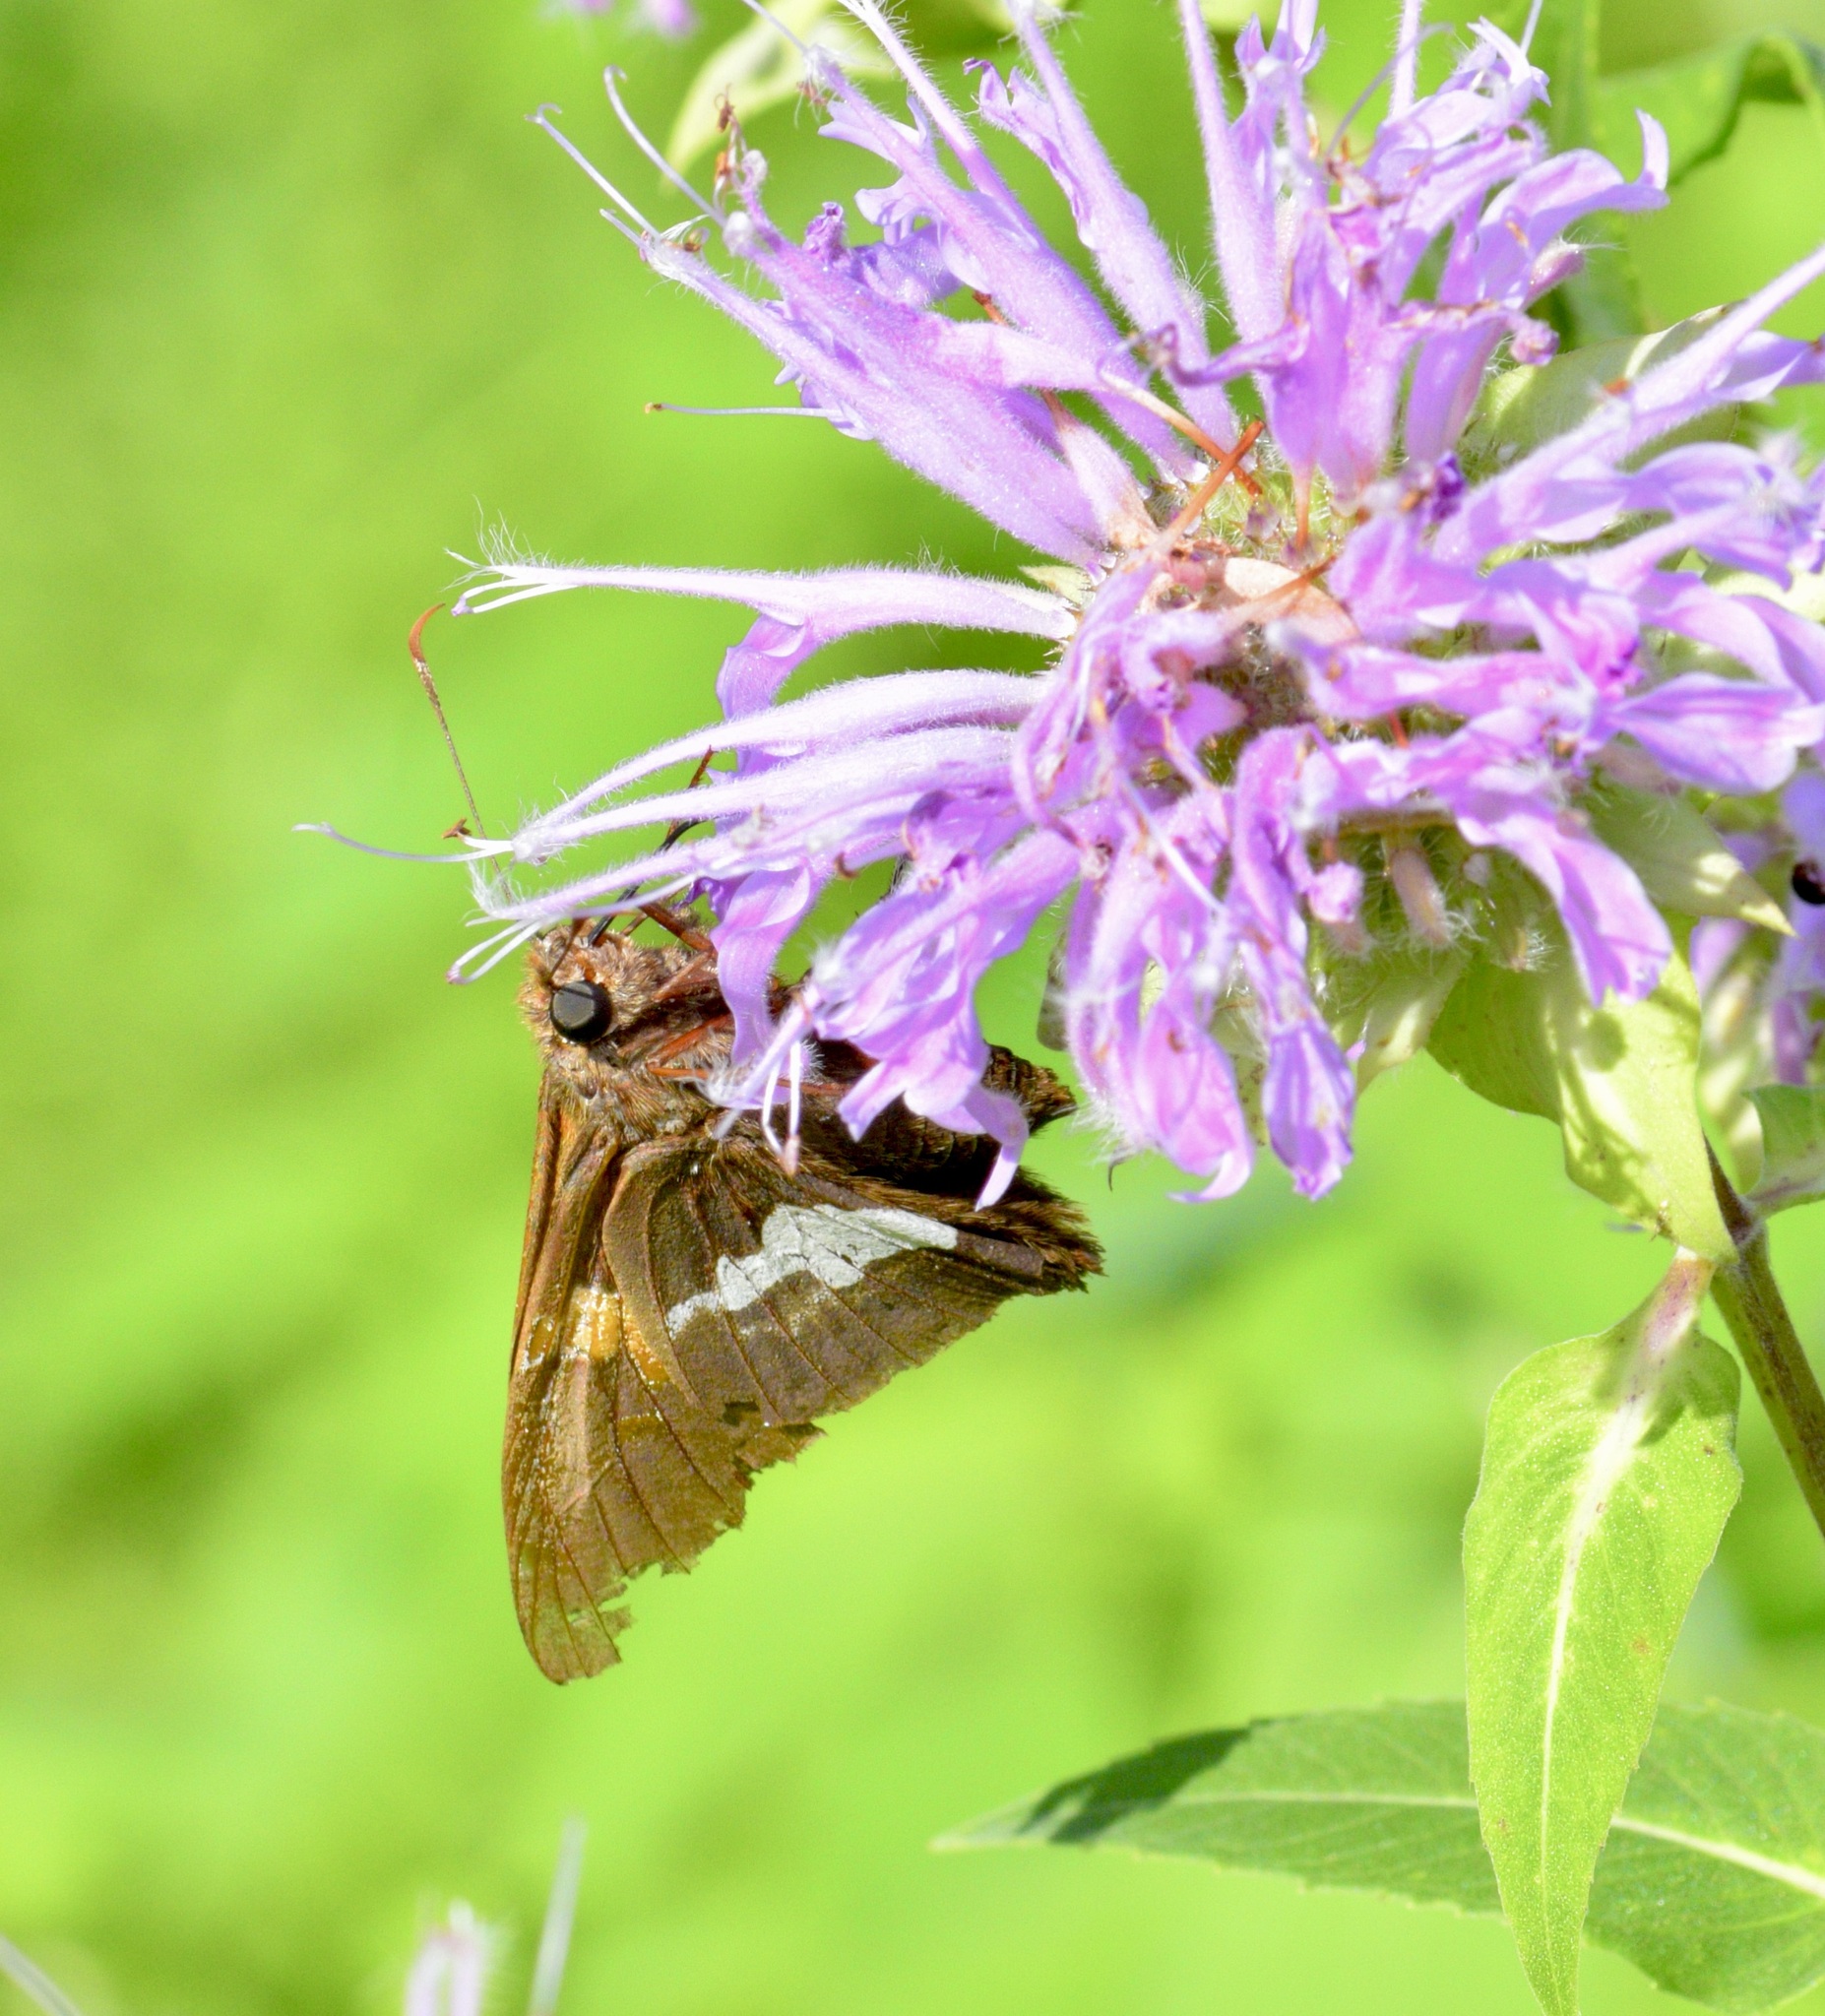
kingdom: Animalia
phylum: Arthropoda
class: Insecta
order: Lepidoptera
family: Hesperiidae
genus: Epargyreus
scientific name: Epargyreus clarus
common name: Silver-spotted skipper
